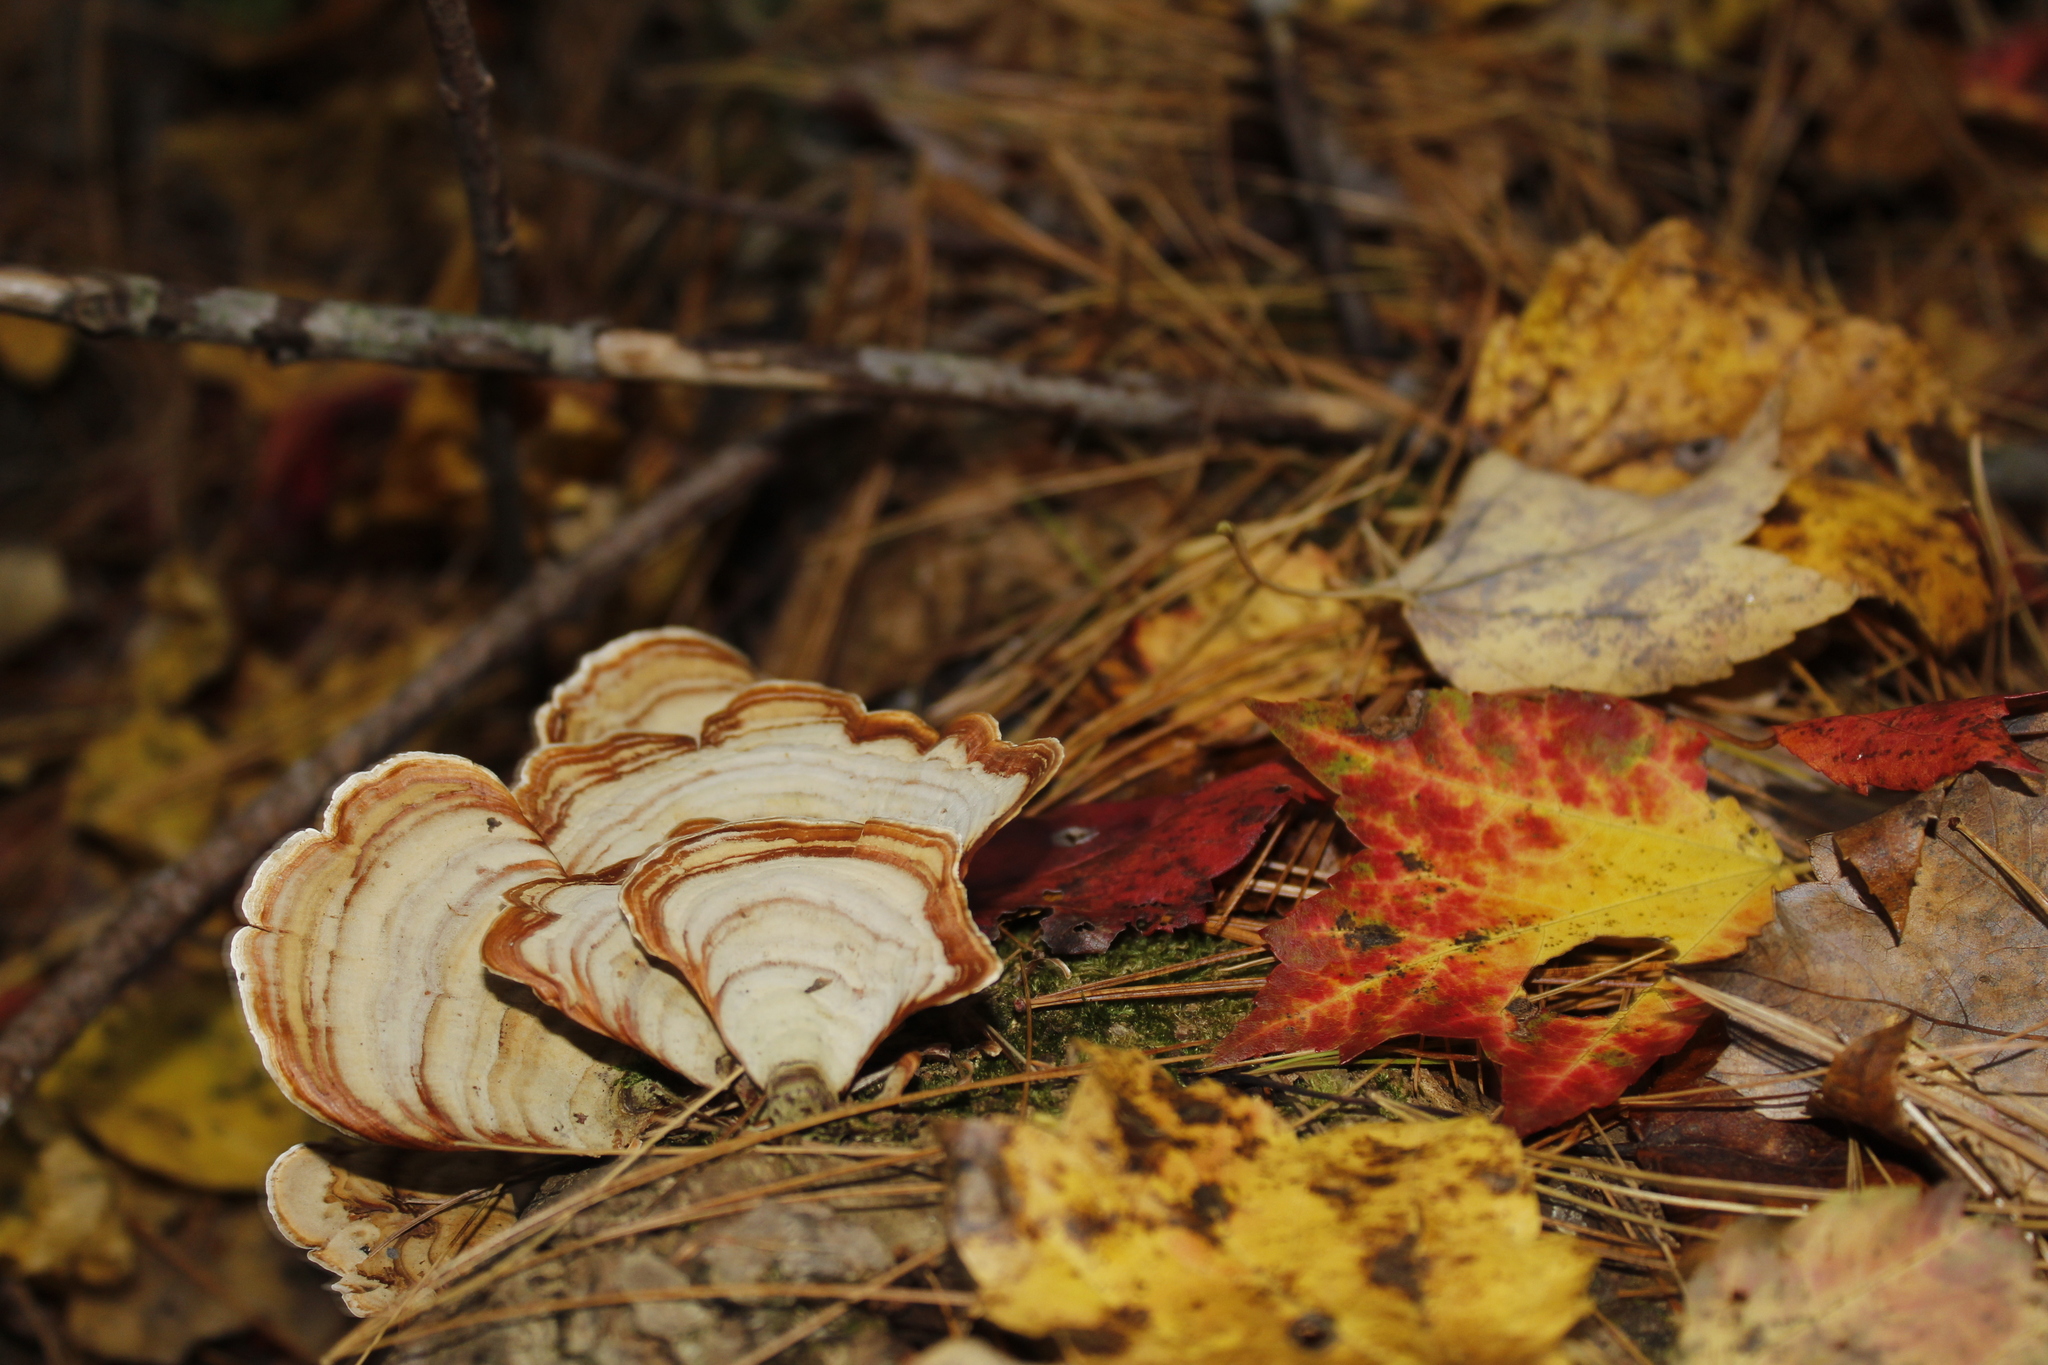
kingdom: Fungi
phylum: Basidiomycota
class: Agaricomycetes
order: Russulales
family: Stereaceae
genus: Stereum
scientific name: Stereum lobatum
